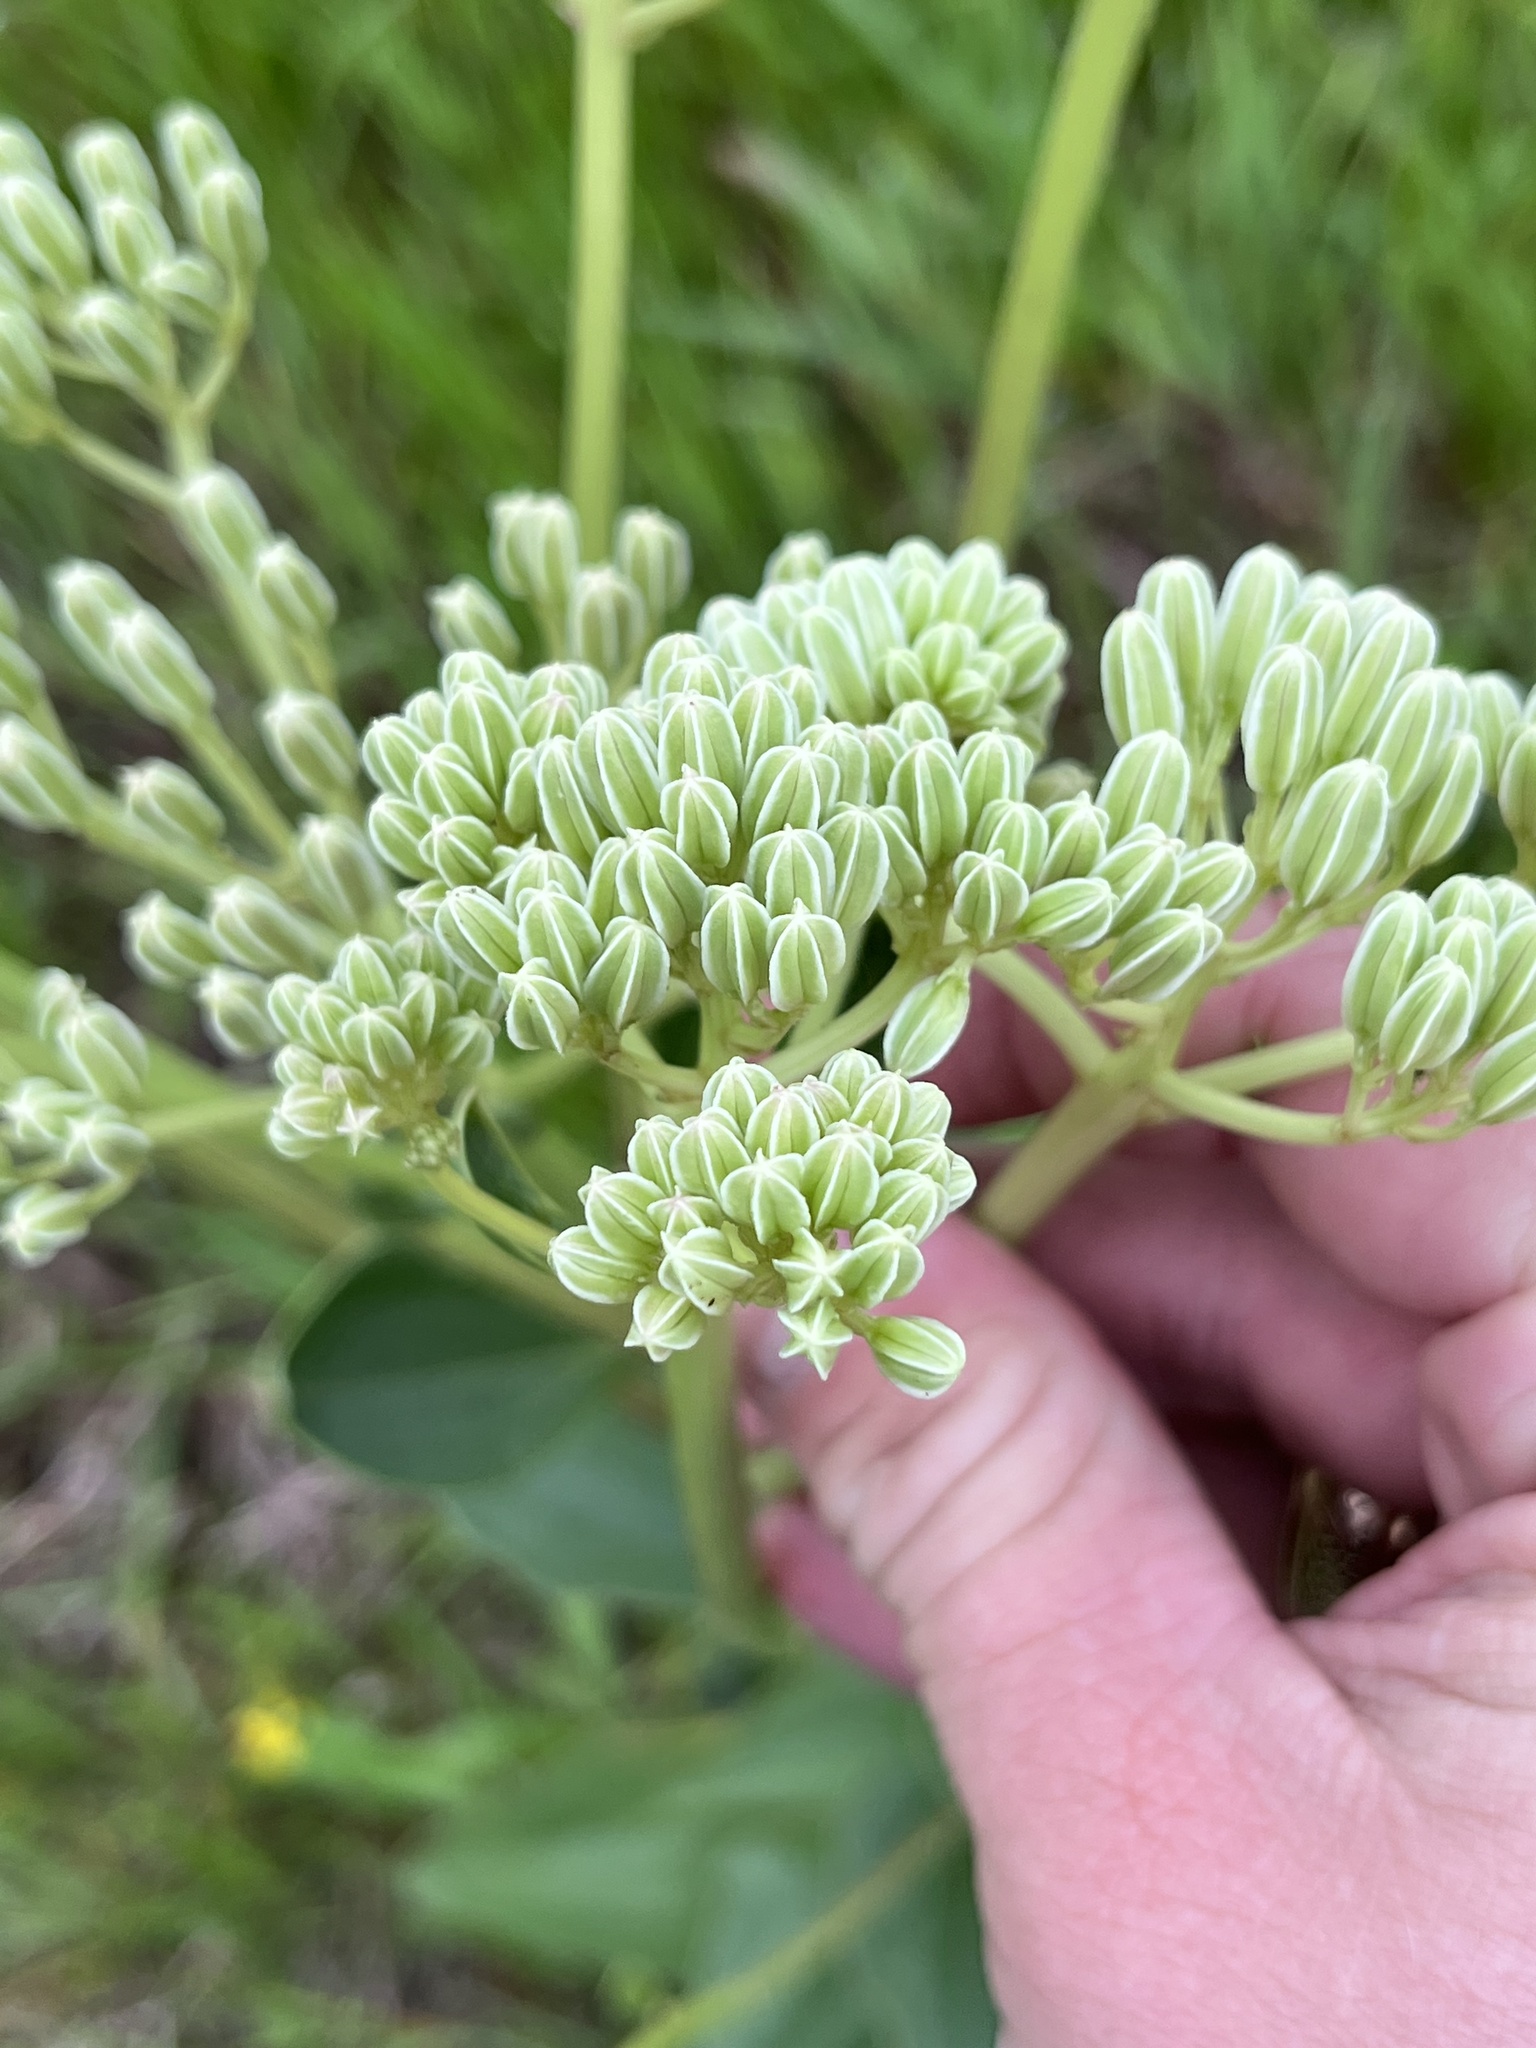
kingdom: Plantae
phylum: Tracheophyta
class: Magnoliopsida
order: Asterales
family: Asteraceae
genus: Arnoglossum
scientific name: Arnoglossum plantagineum
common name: Groove-stemmed indian-plantain
